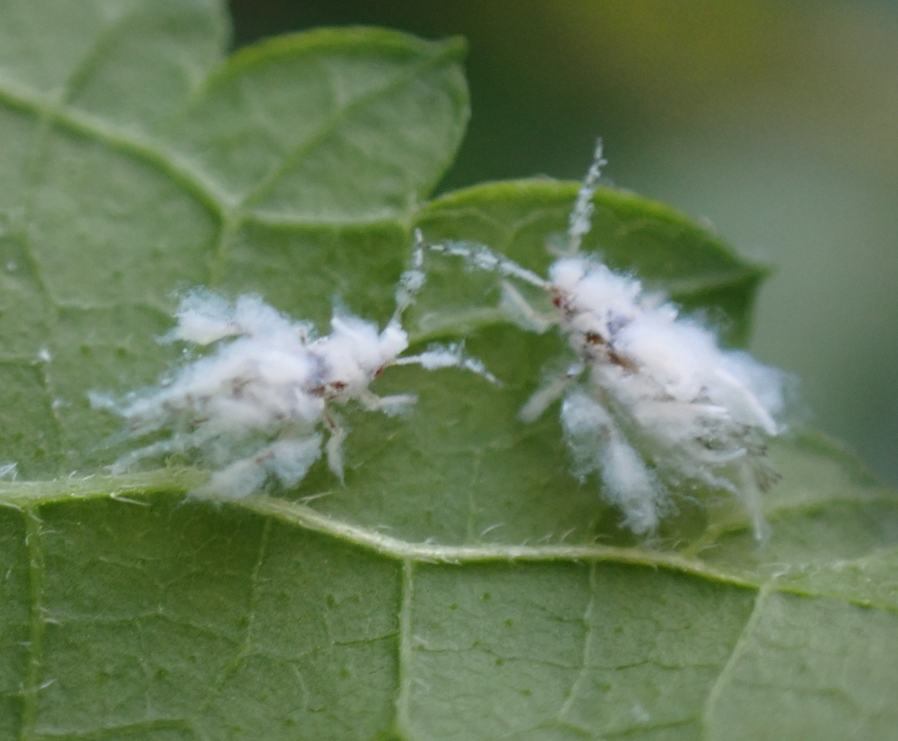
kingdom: Animalia
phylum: Arthropoda
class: Insecta
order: Hemiptera
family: Aphididae
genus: Shivaphis
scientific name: Shivaphis celti
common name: Asian wooly hackberry aphid
